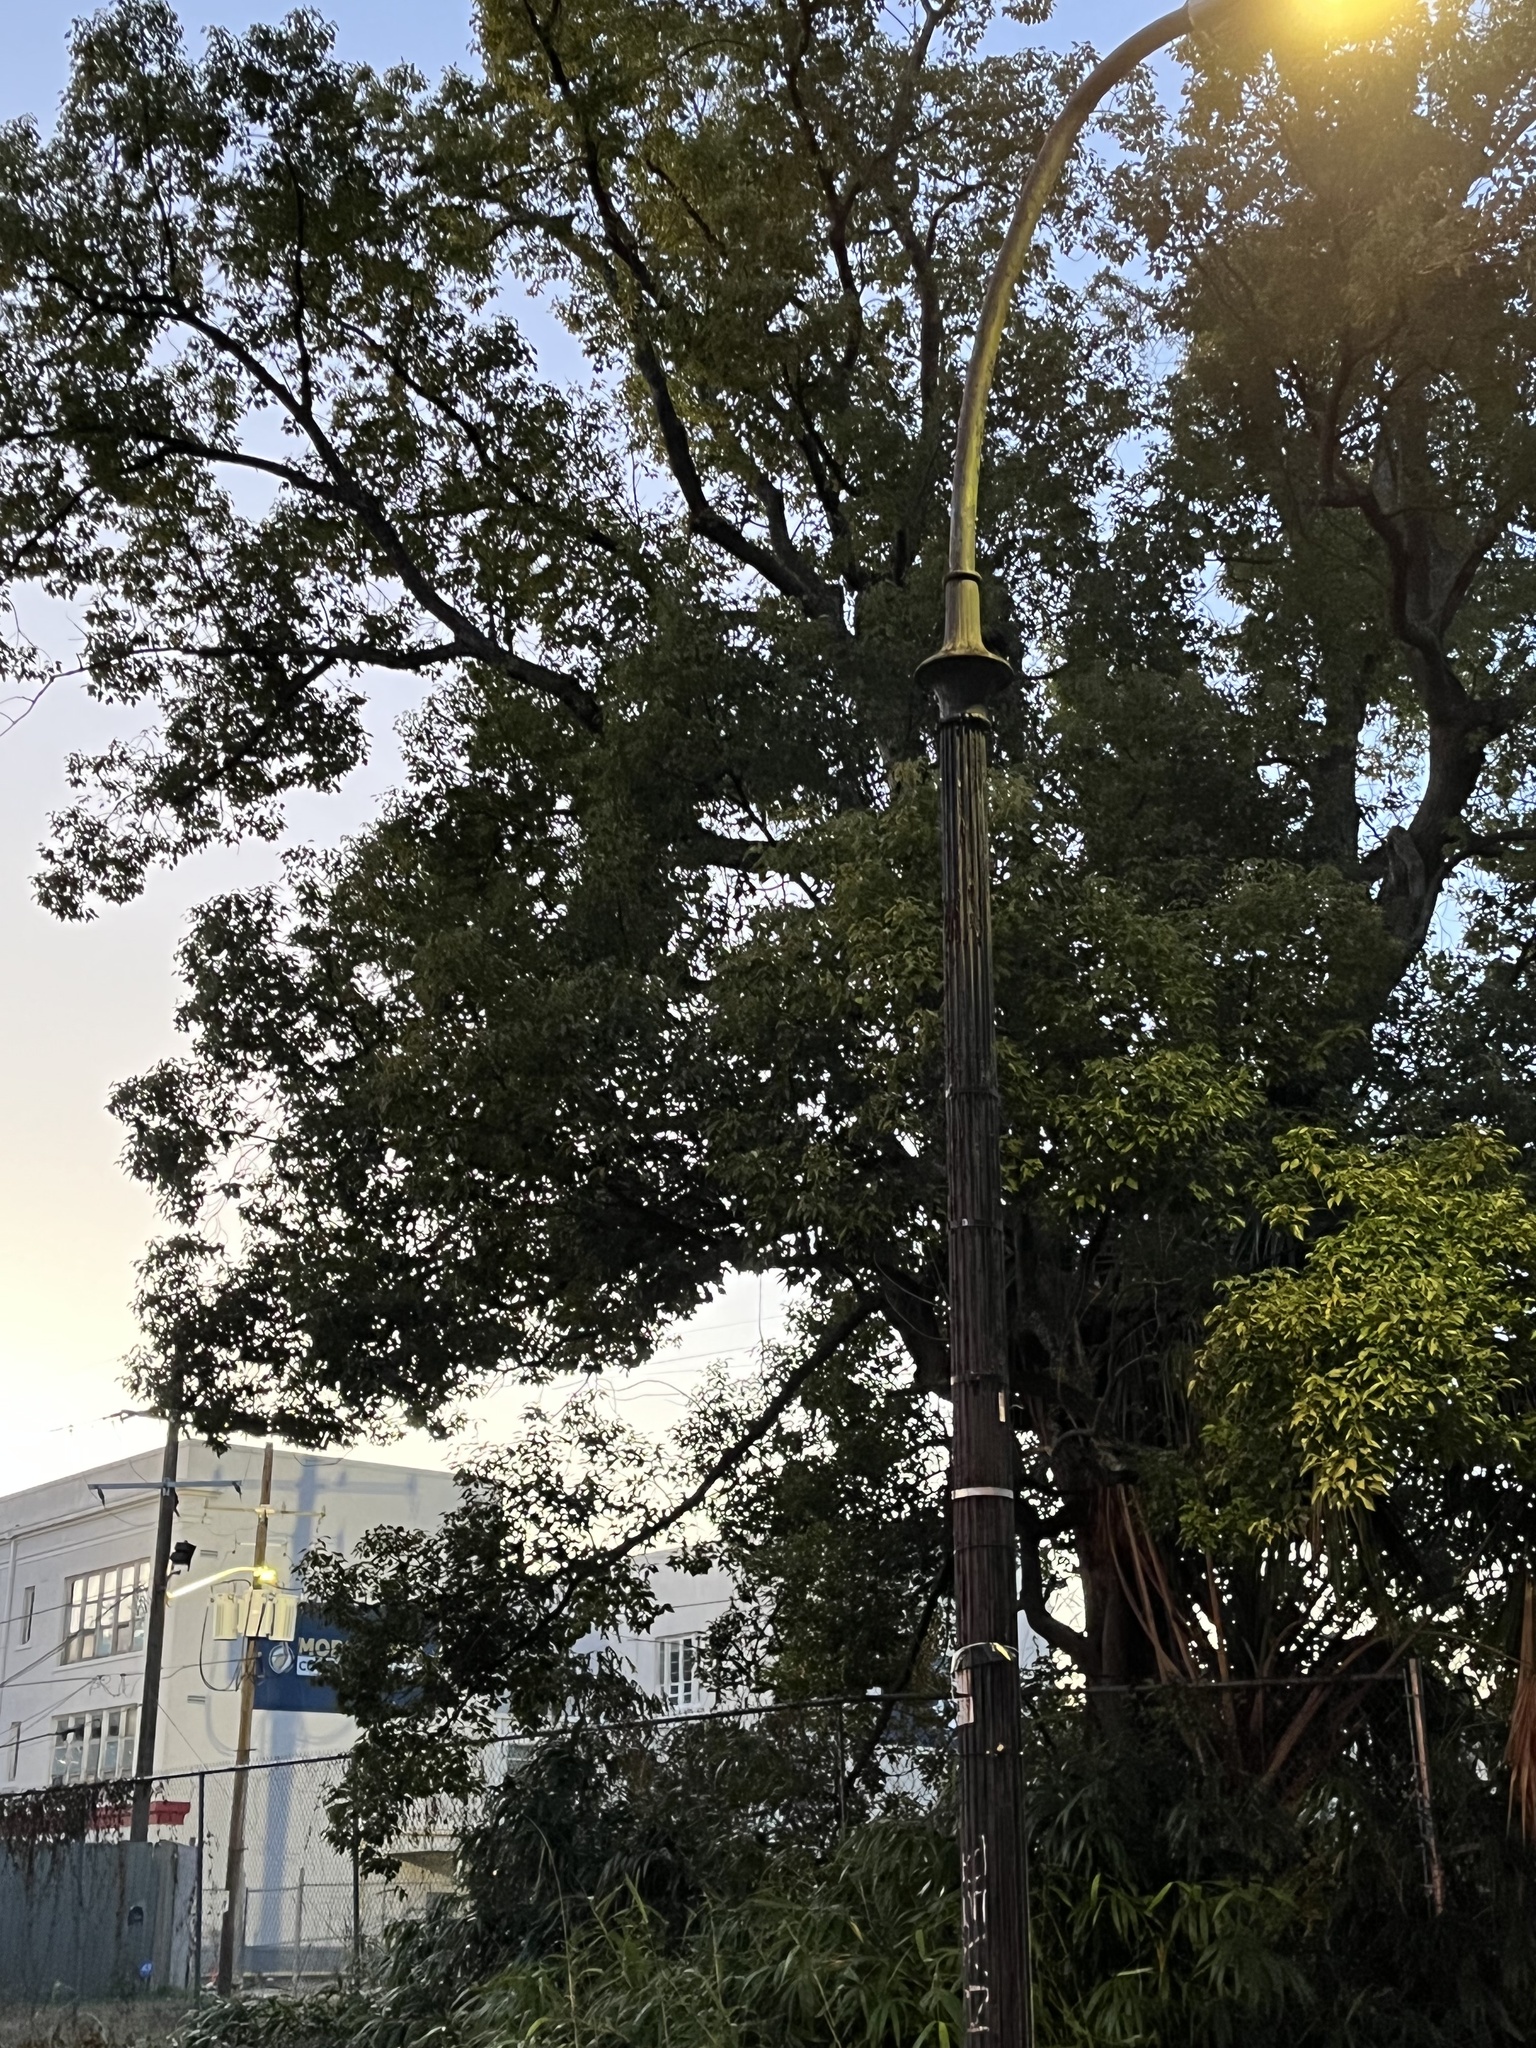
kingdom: Plantae
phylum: Tracheophyta
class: Magnoliopsida
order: Fagales
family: Fagaceae
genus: Quercus
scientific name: Quercus virginiana
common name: Southern live oak
